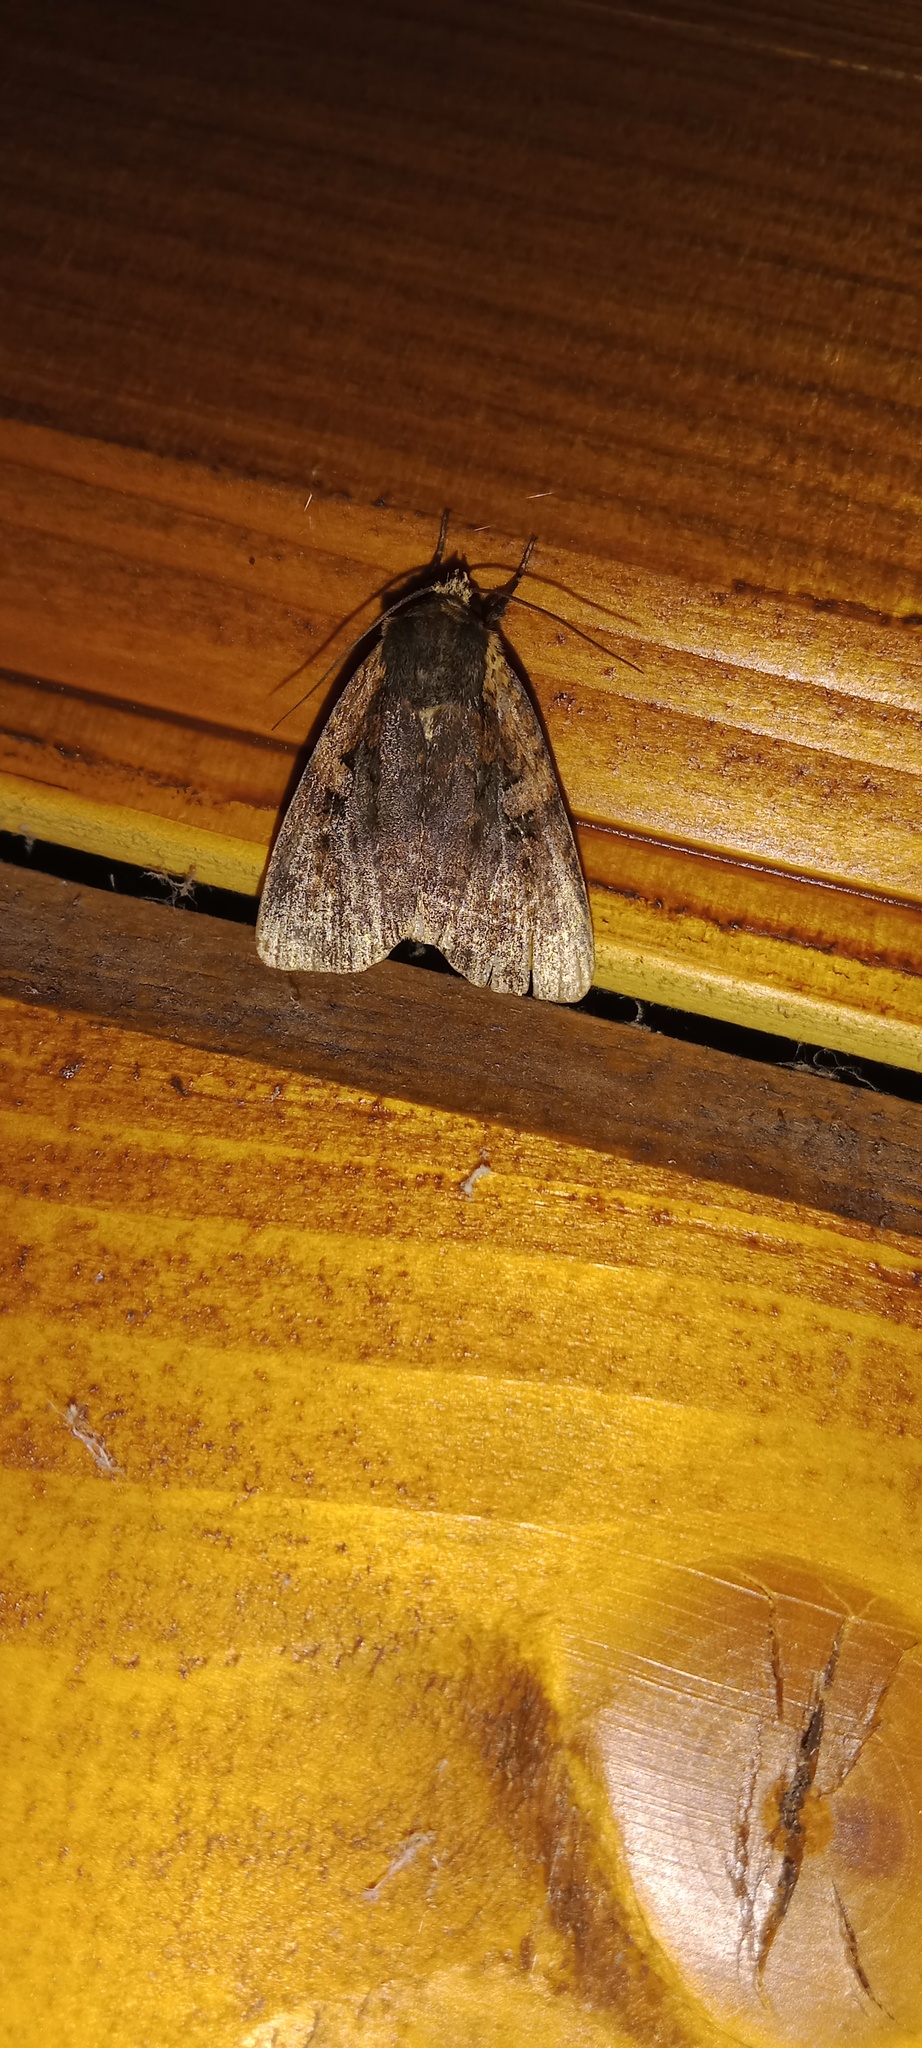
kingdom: Animalia
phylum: Arthropoda
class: Insecta
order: Lepidoptera
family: Noctuidae
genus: Eugraphe
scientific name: Eugraphe sigma
